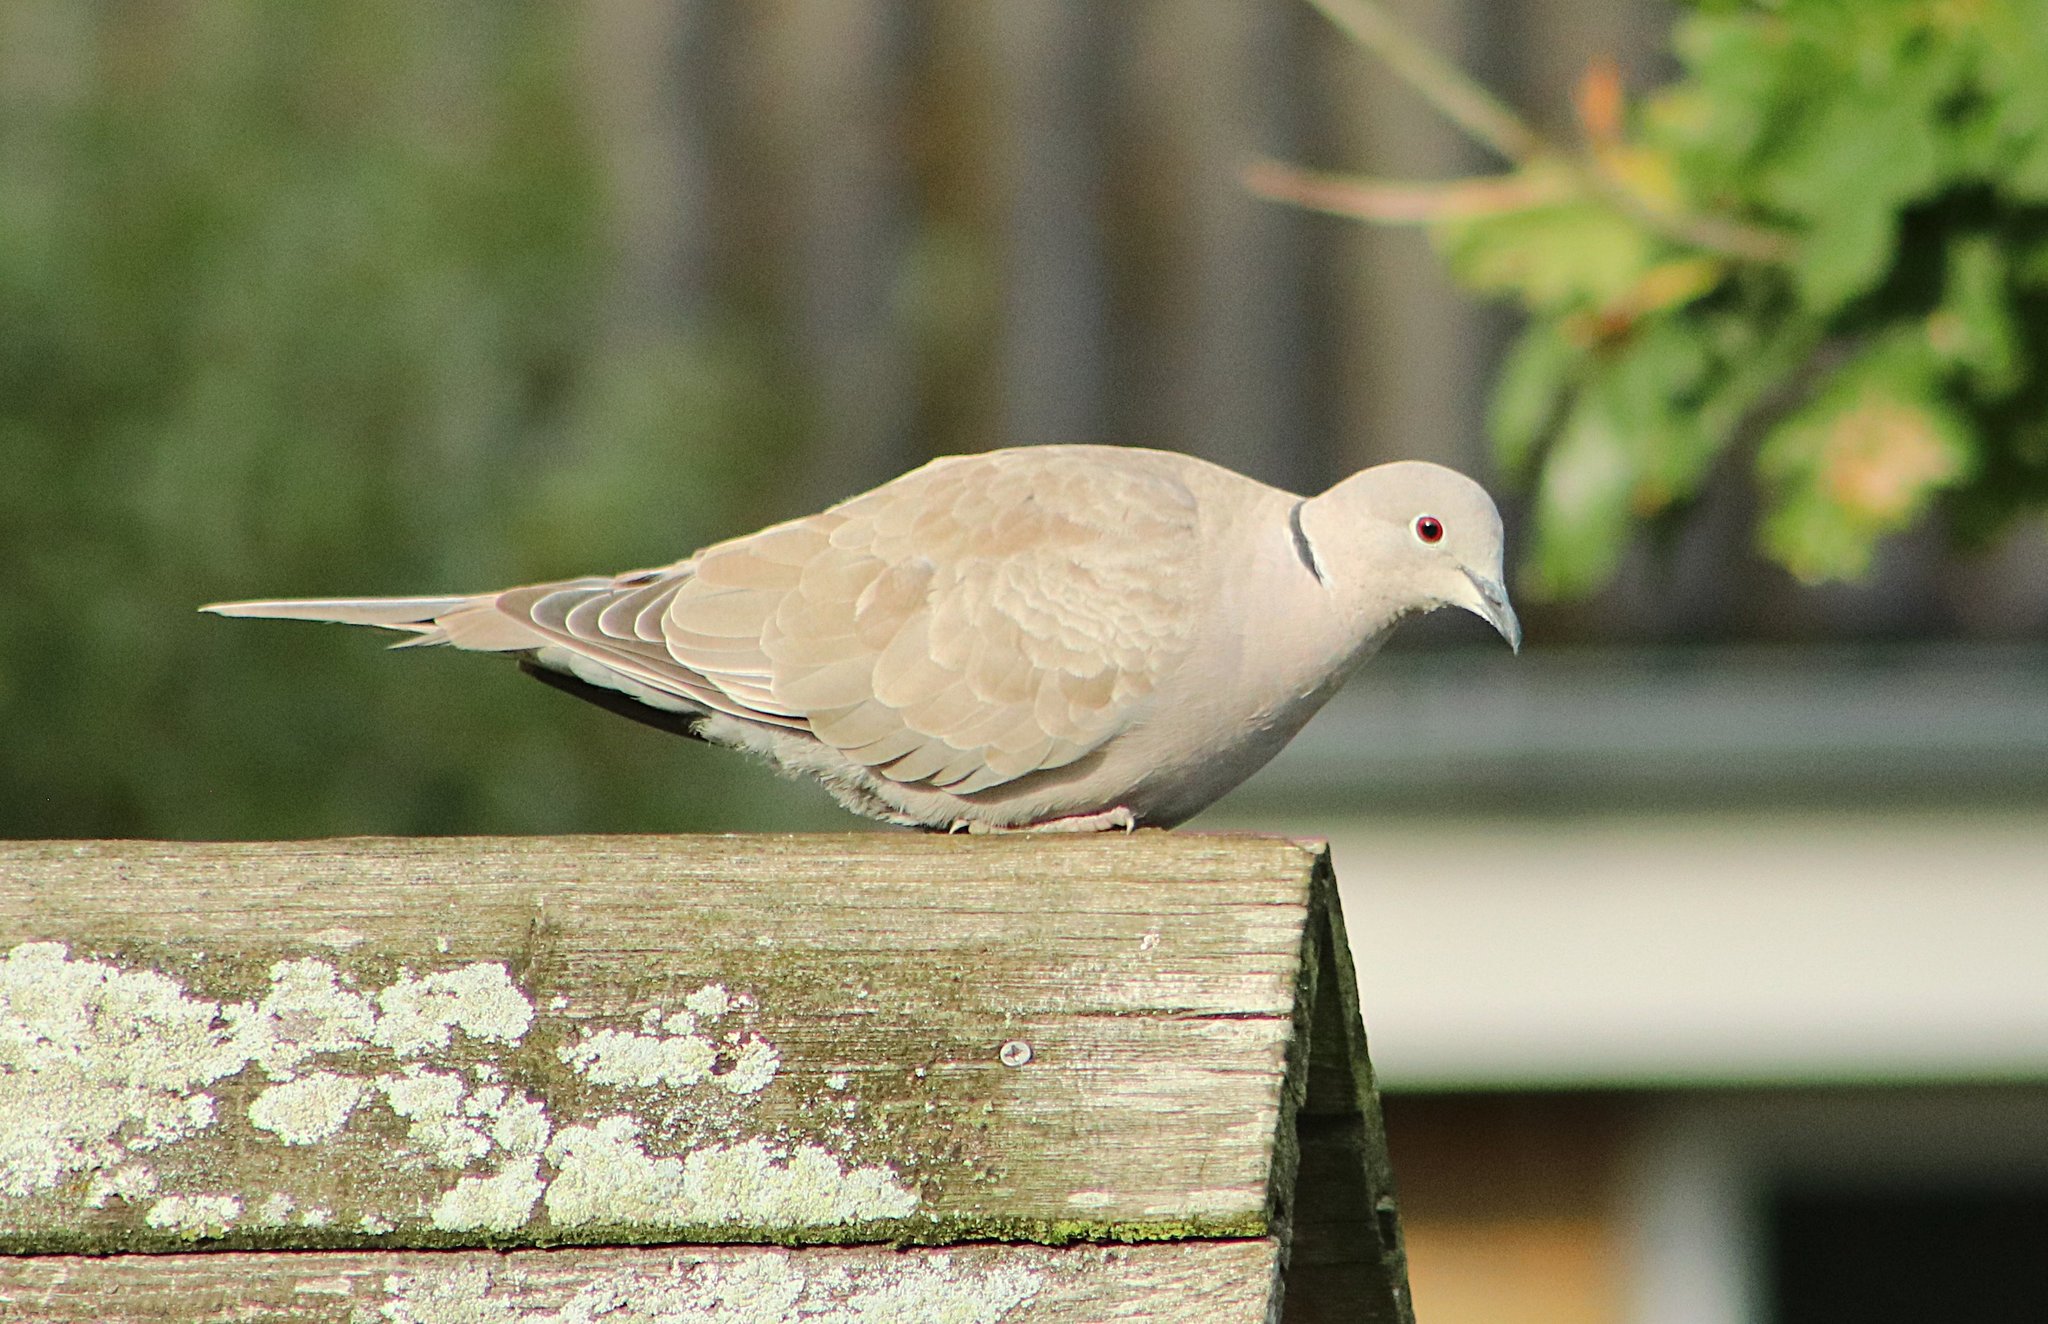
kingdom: Animalia
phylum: Chordata
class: Aves
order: Columbiformes
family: Columbidae
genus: Streptopelia
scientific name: Streptopelia decaocto
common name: Eurasian collared dove
